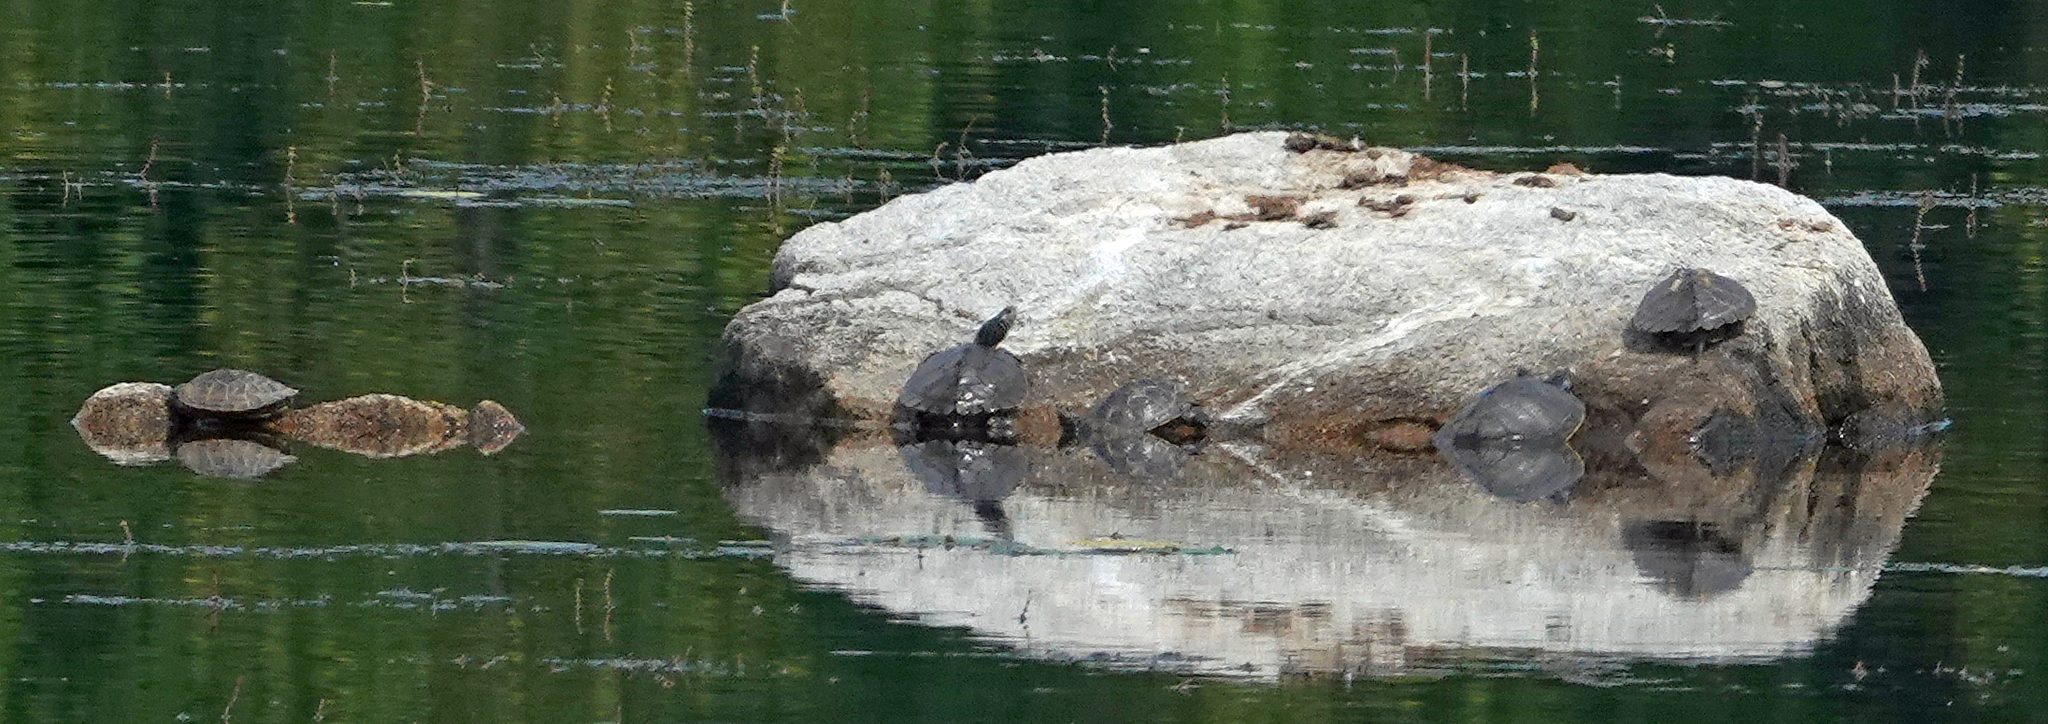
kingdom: Animalia
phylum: Chordata
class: Testudines
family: Emydidae
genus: Graptemys
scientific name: Graptemys geographica
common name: Common map turtle
